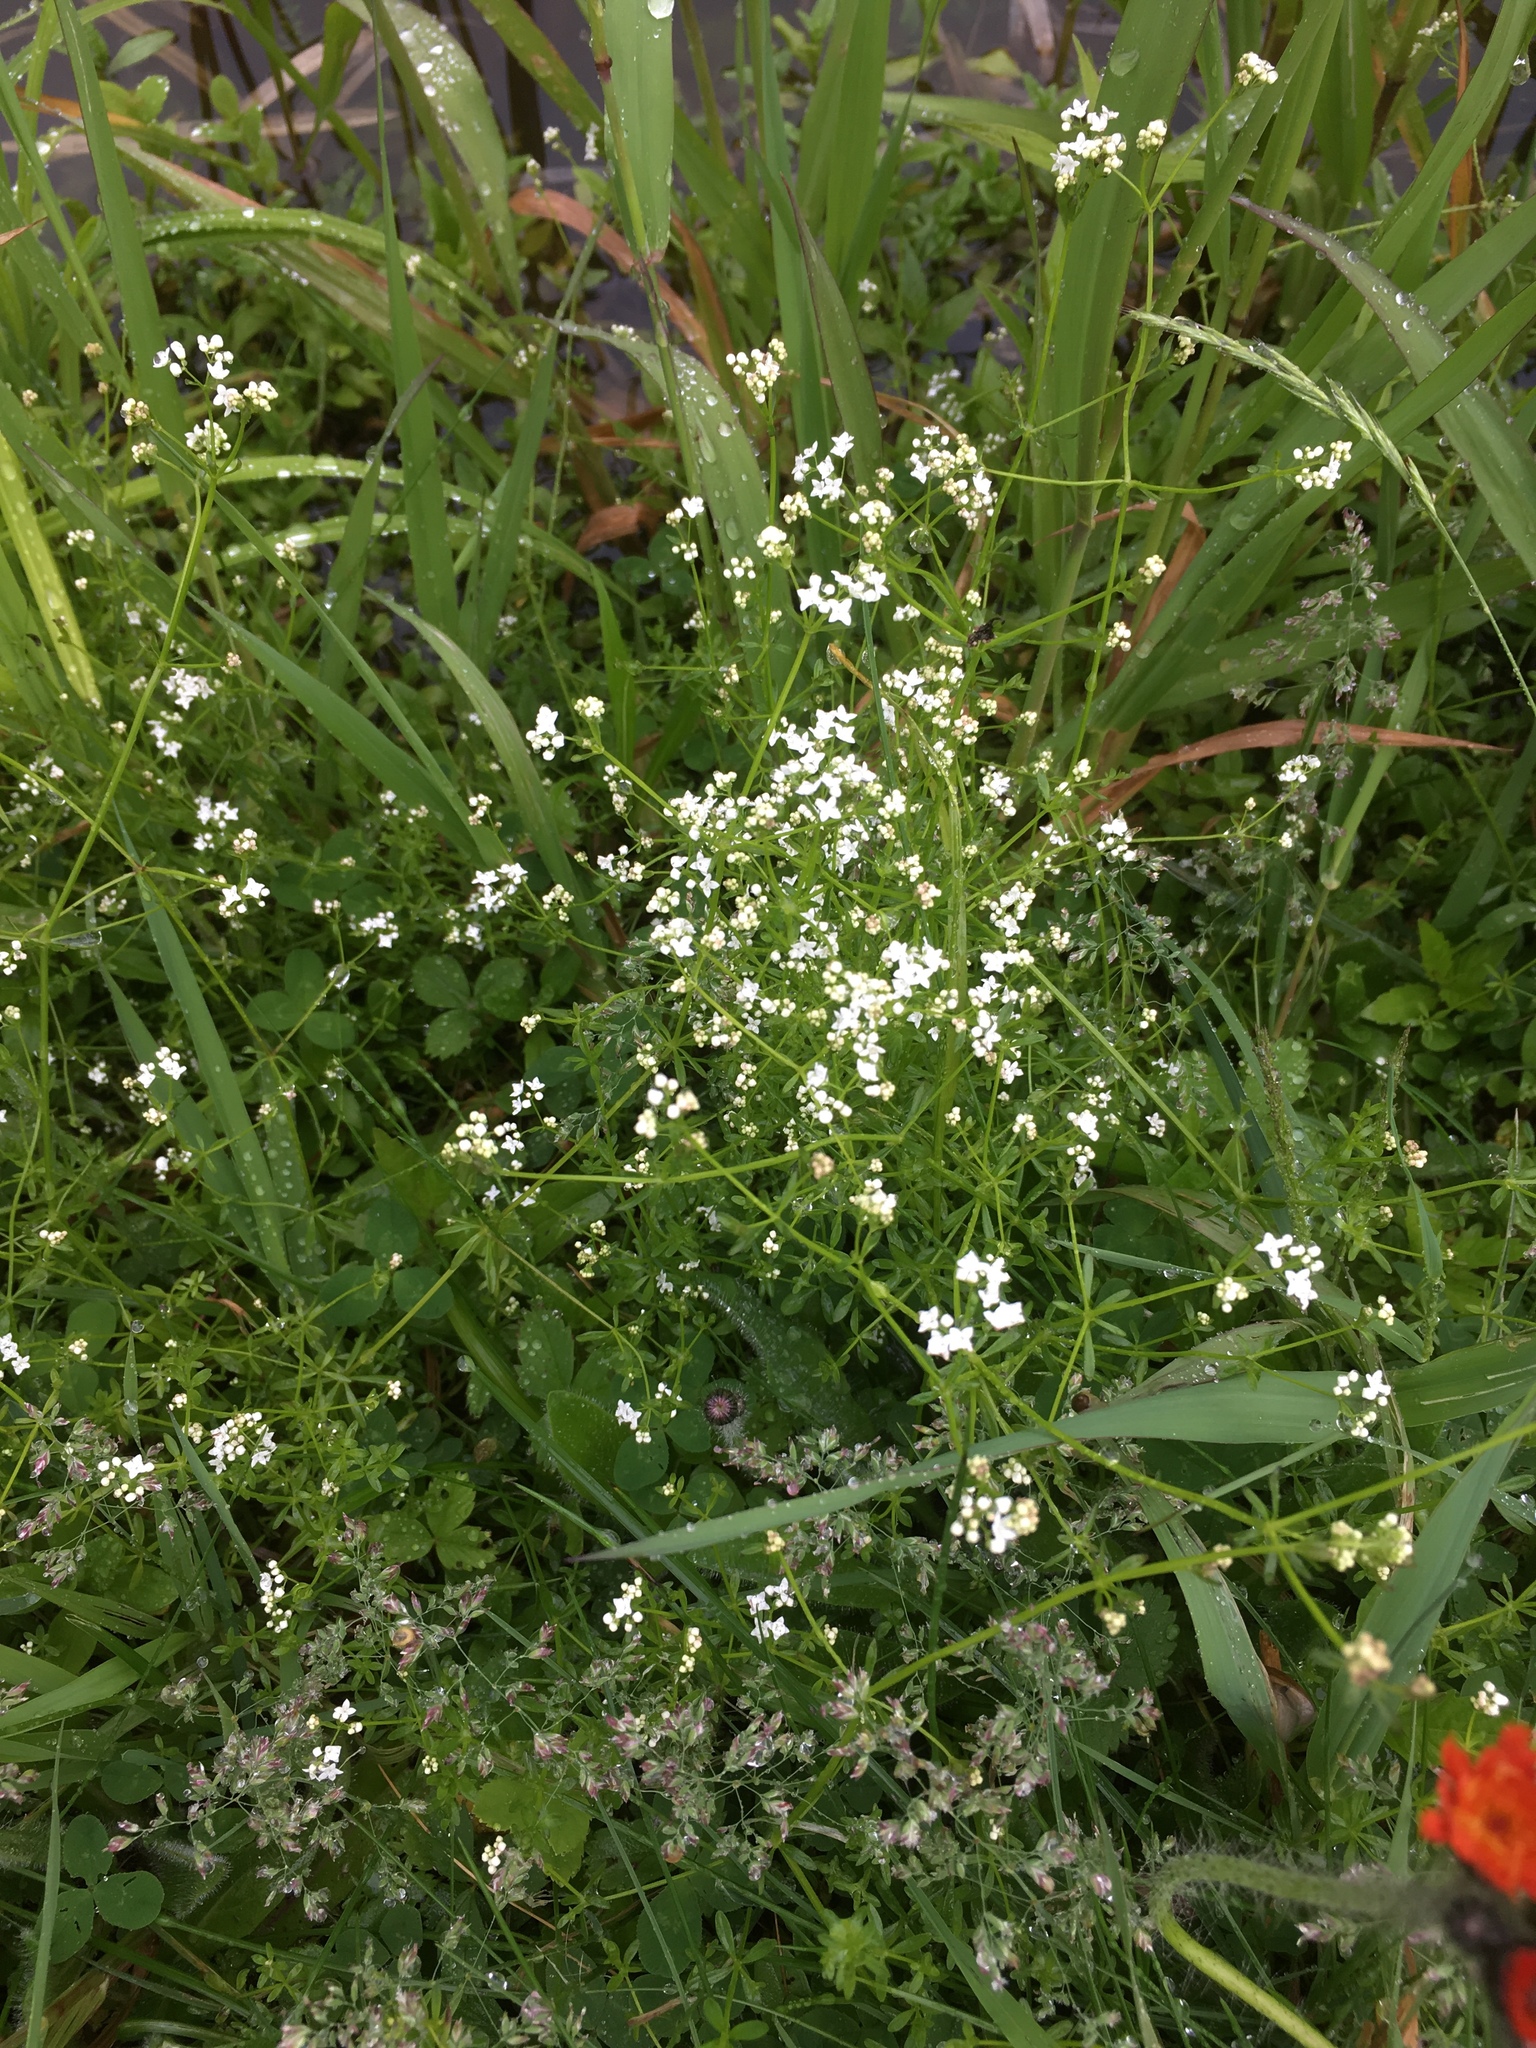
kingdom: Plantae
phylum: Tracheophyta
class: Magnoliopsida
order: Gentianales
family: Rubiaceae
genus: Galium
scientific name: Galium palustre
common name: Common marsh-bedstraw
